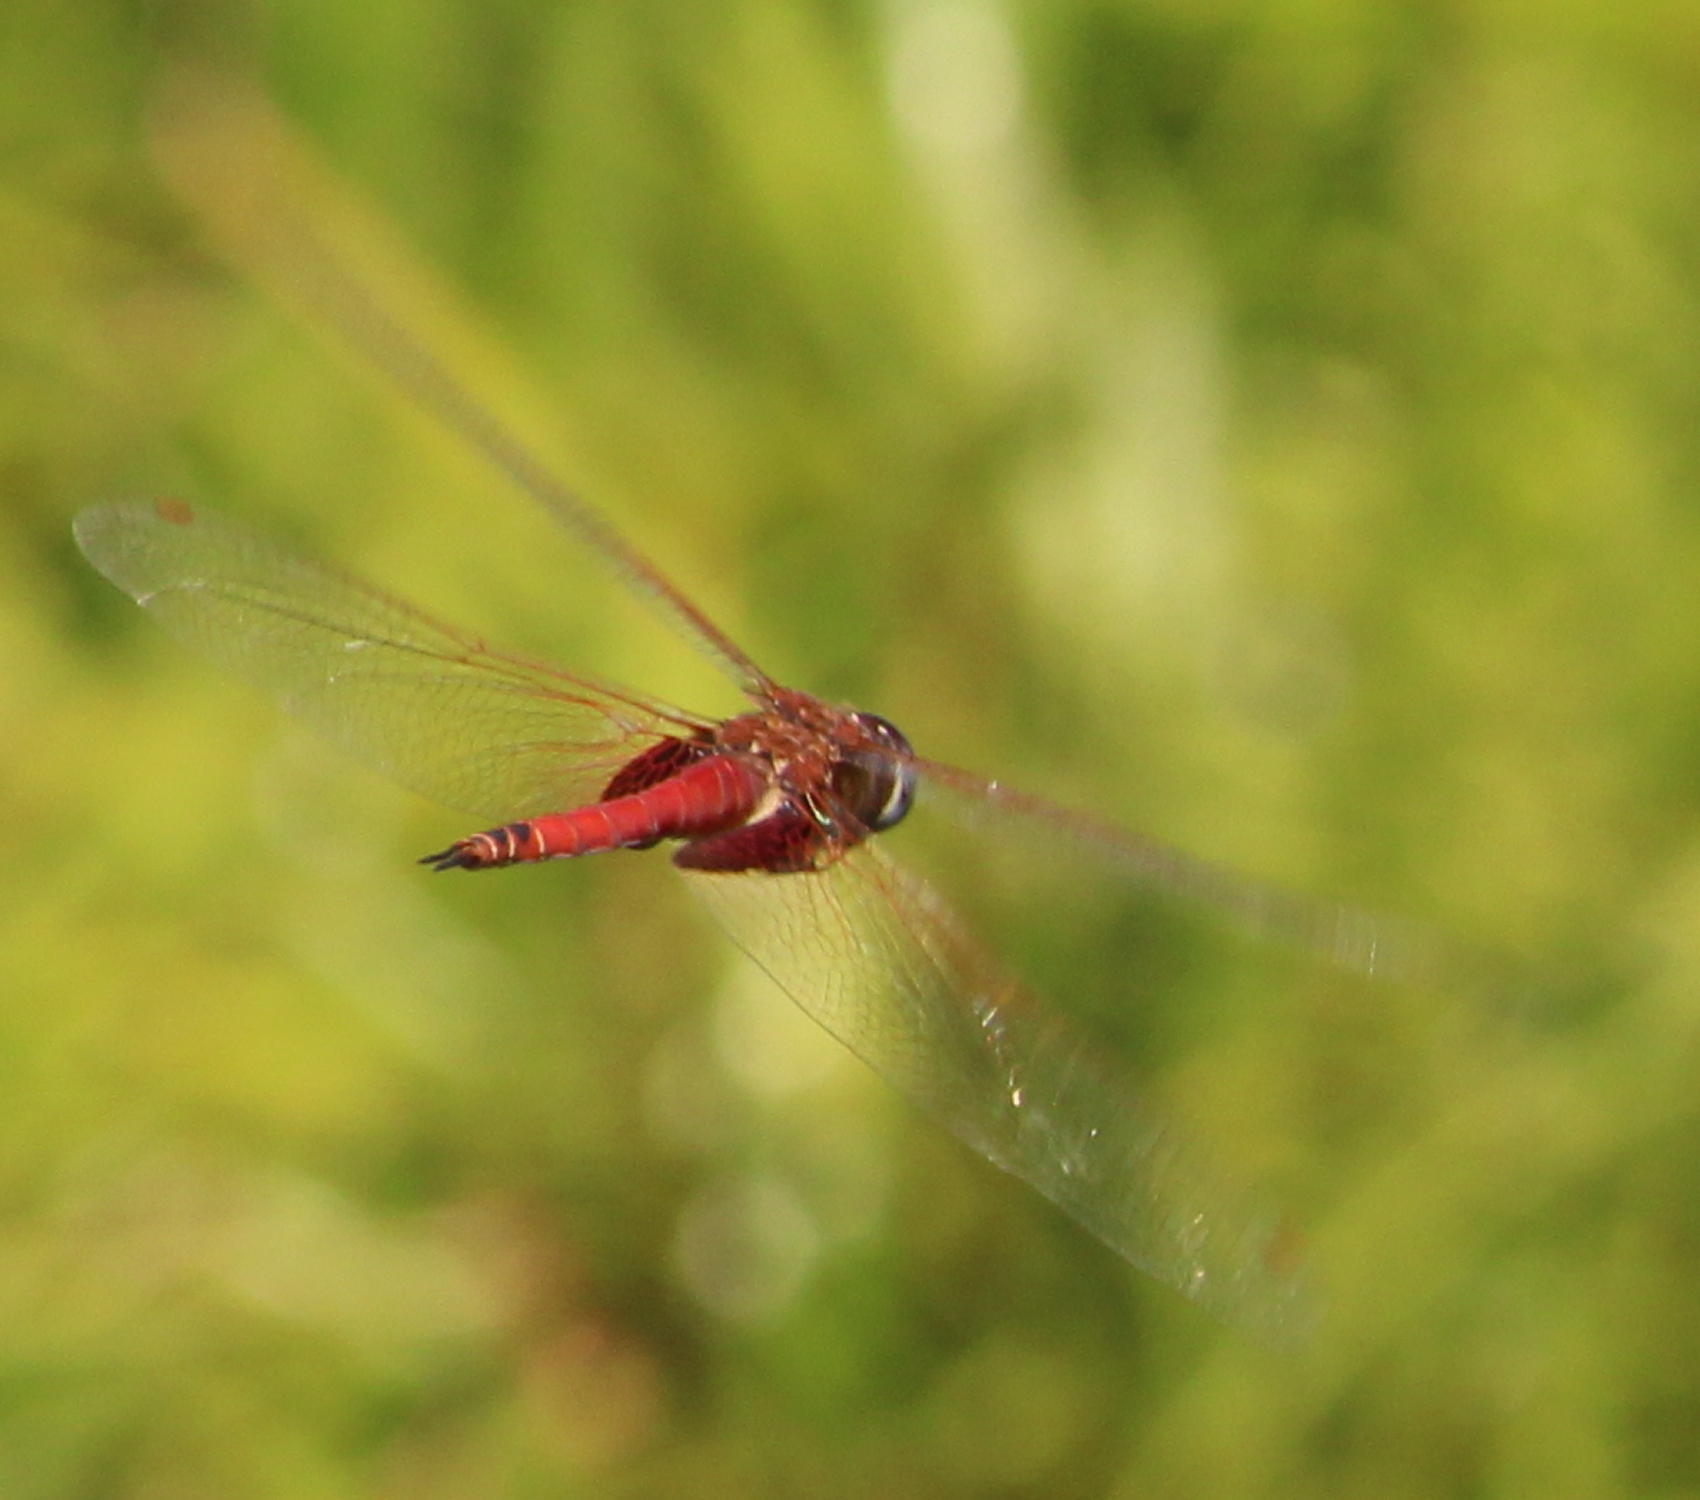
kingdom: Animalia
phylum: Arthropoda
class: Insecta
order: Odonata
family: Libellulidae
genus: Tramea
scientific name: Tramea limbata
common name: Ferruginous glider
